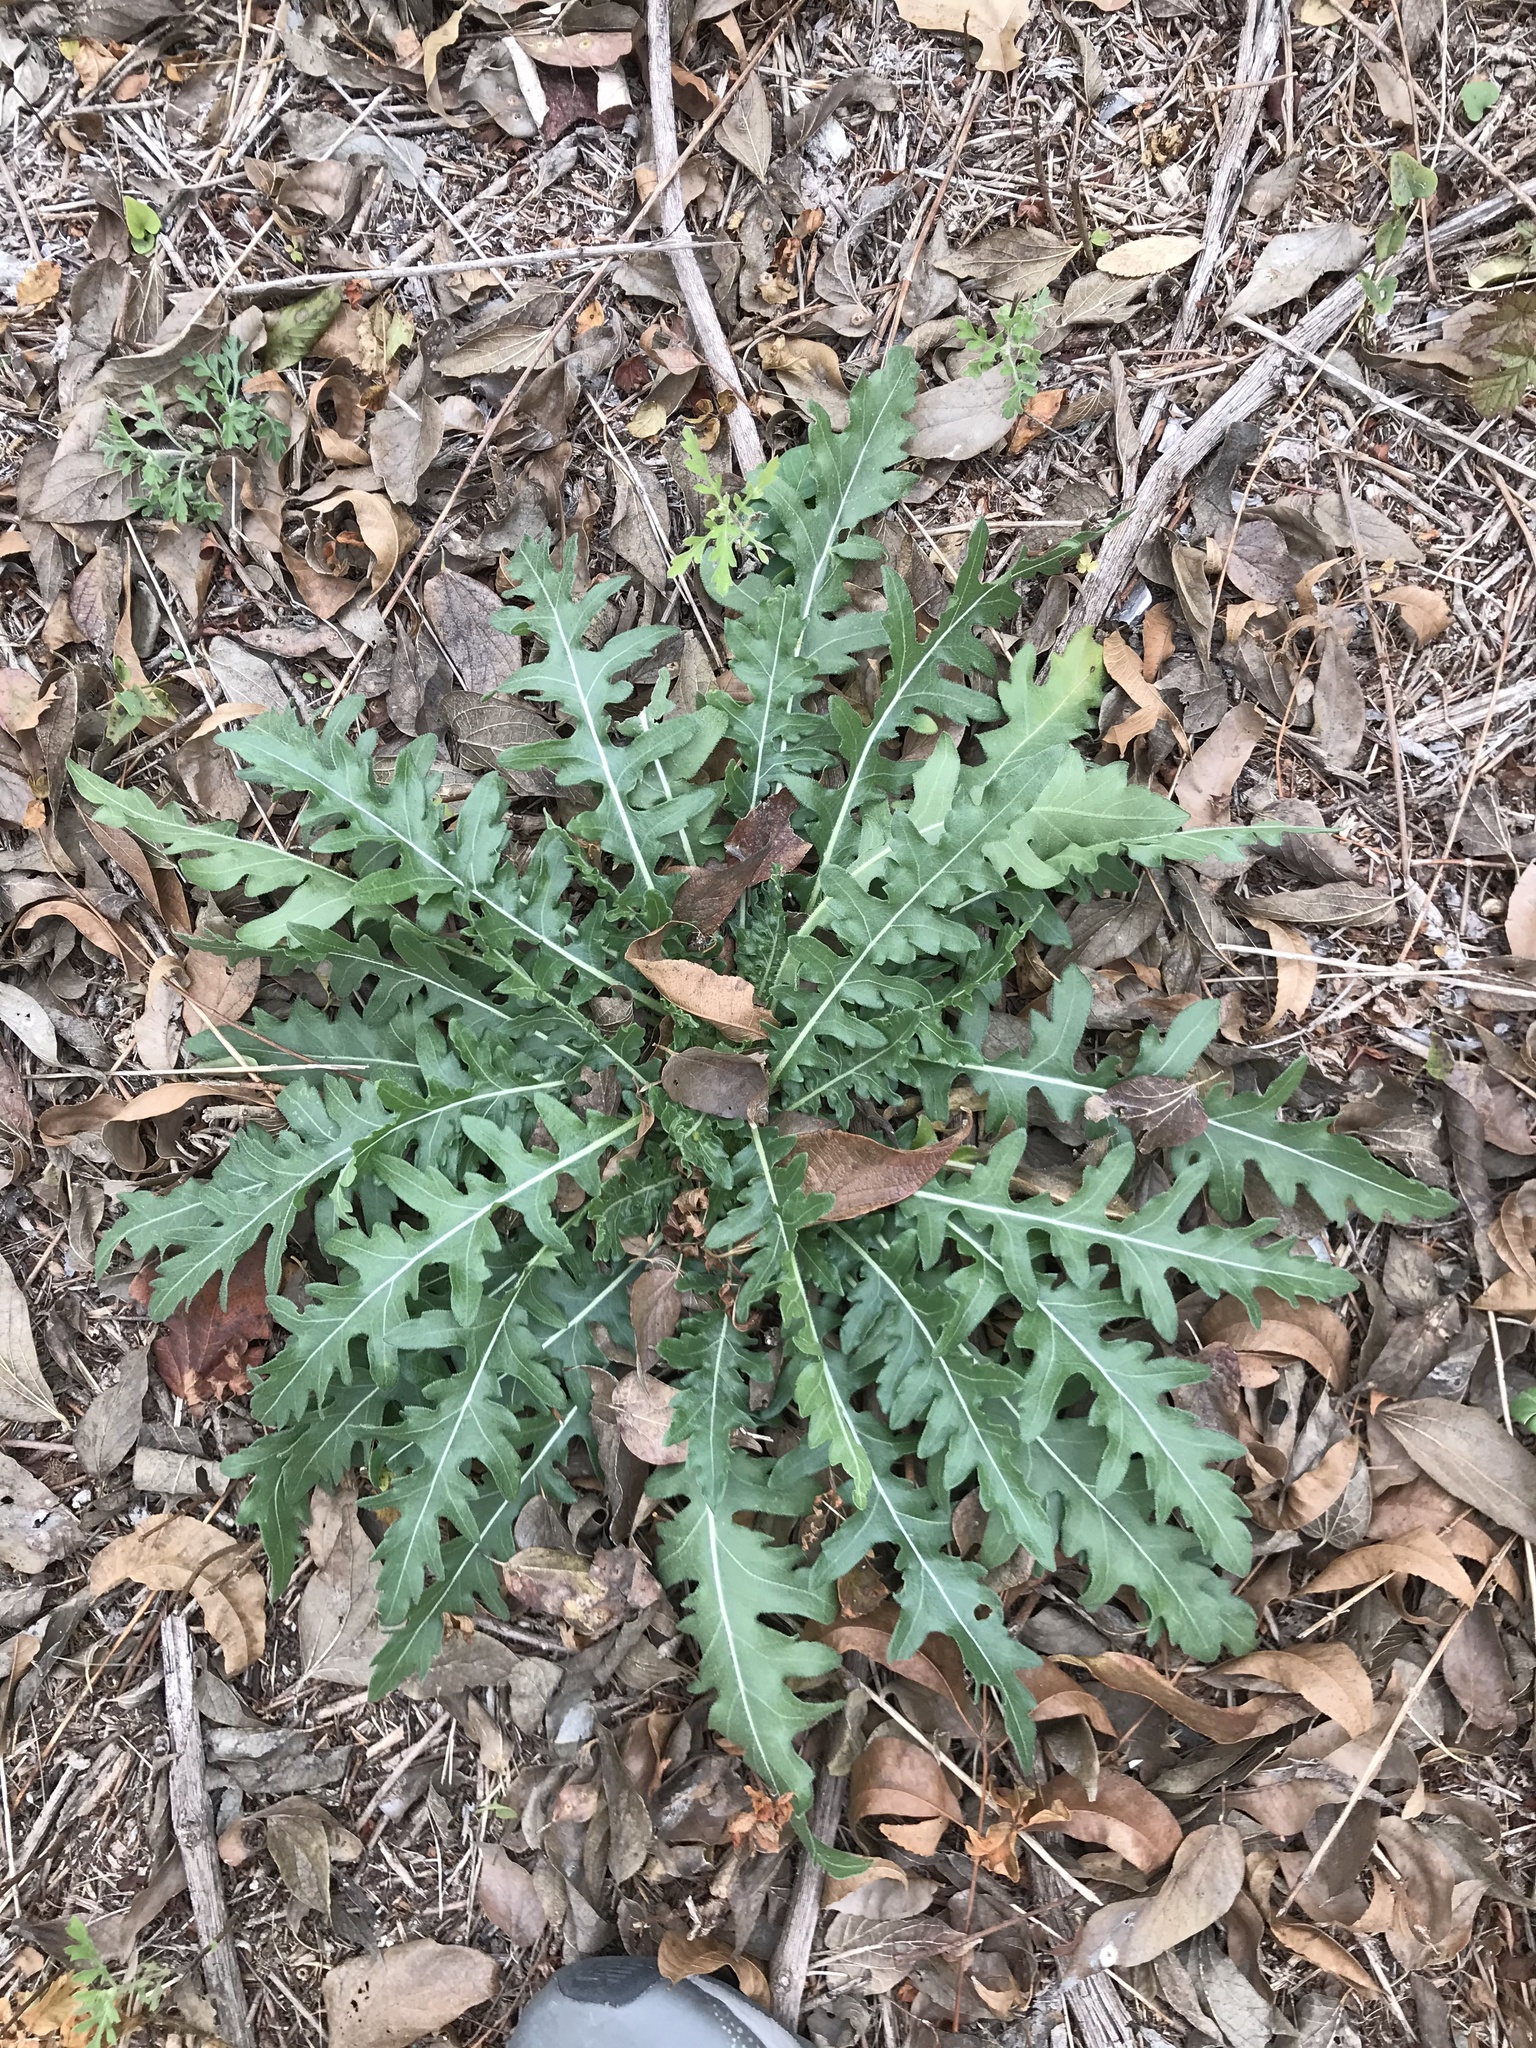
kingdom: Plantae
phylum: Tracheophyta
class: Magnoliopsida
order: Asterales
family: Asteraceae
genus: Engelmannia
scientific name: Engelmannia peristenia
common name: Engelmann's daisy
